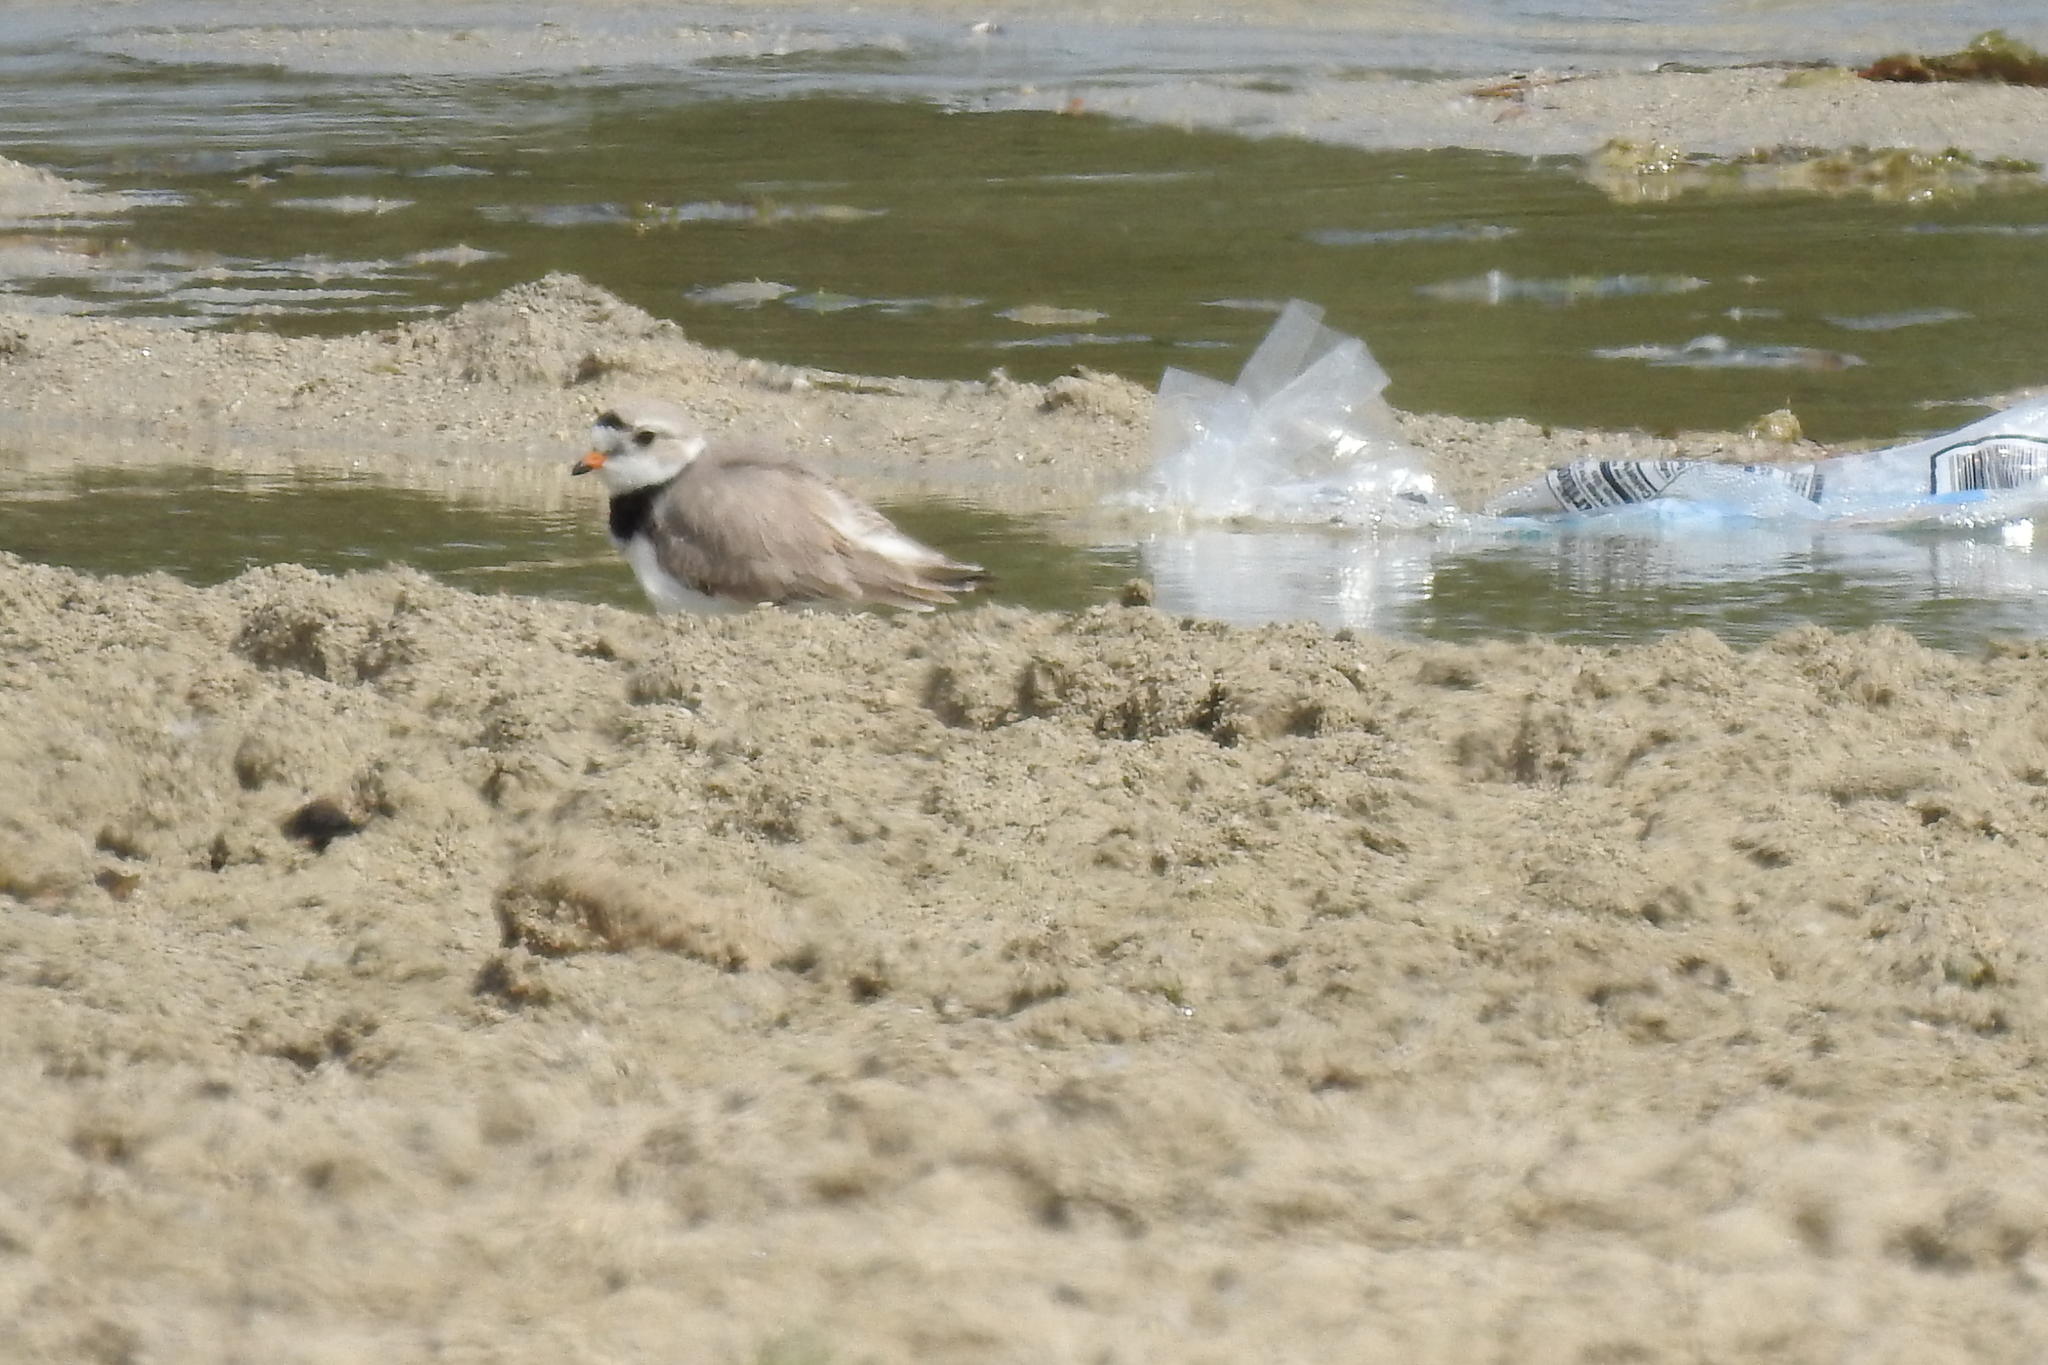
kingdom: Animalia
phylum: Chordata
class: Aves
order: Charadriiformes
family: Charadriidae
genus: Charadrius
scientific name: Charadrius melodus
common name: Piping plover
